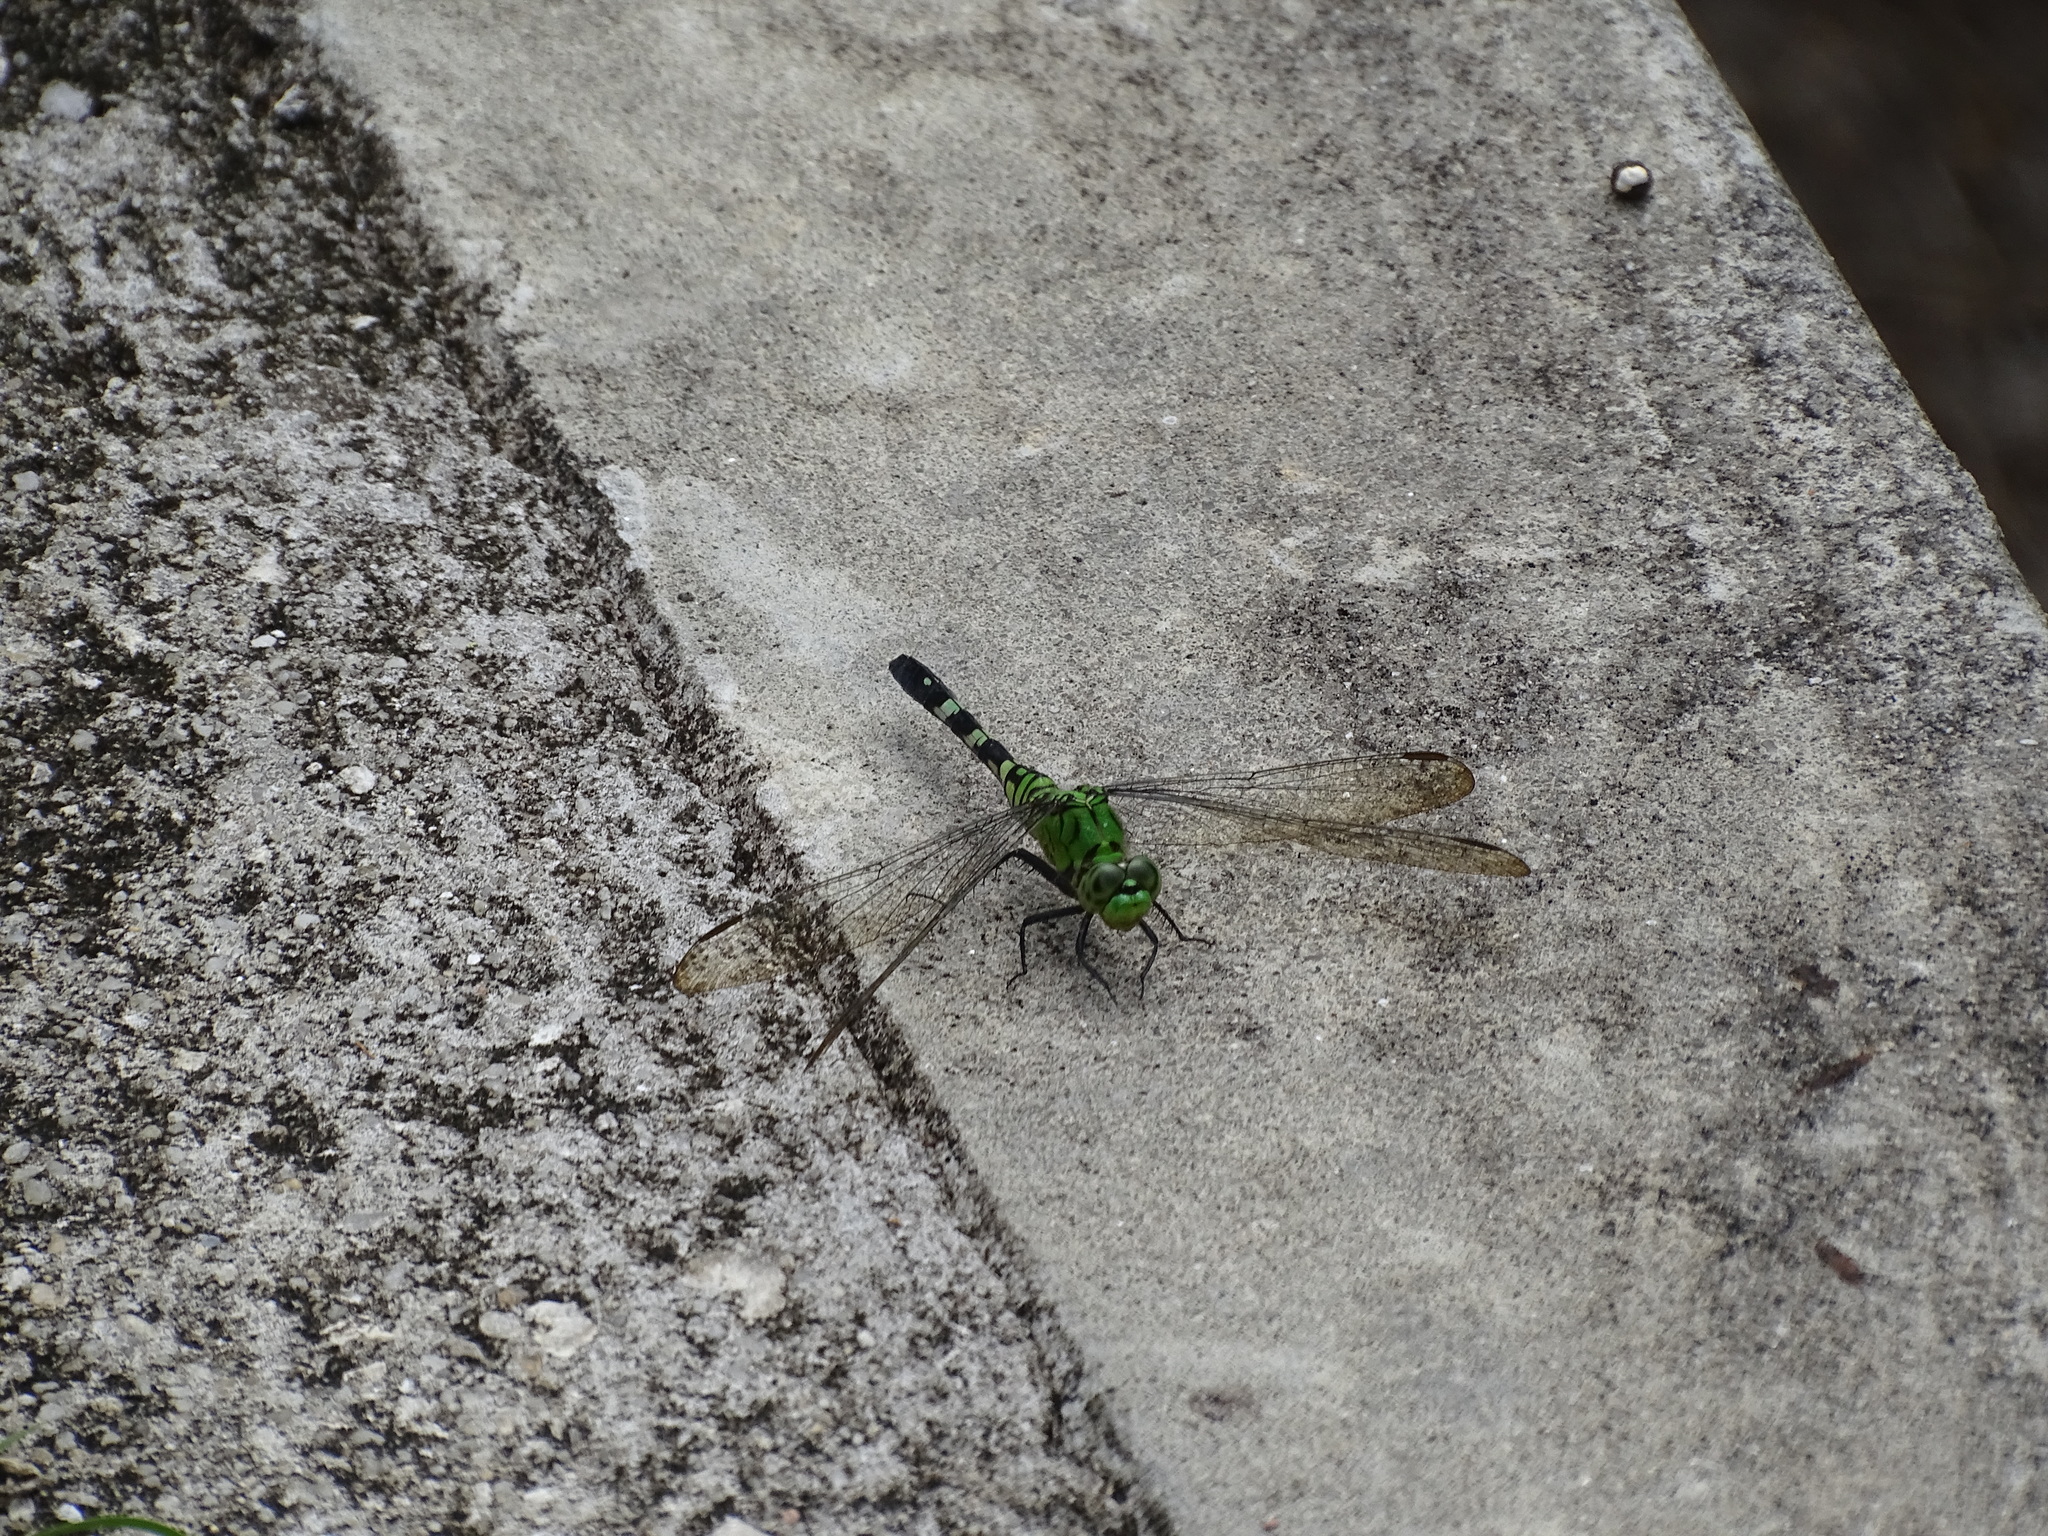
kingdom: Animalia
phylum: Arthropoda
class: Insecta
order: Odonata
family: Libellulidae
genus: Erythemis
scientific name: Erythemis simplicicollis
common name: Eastern pondhawk
